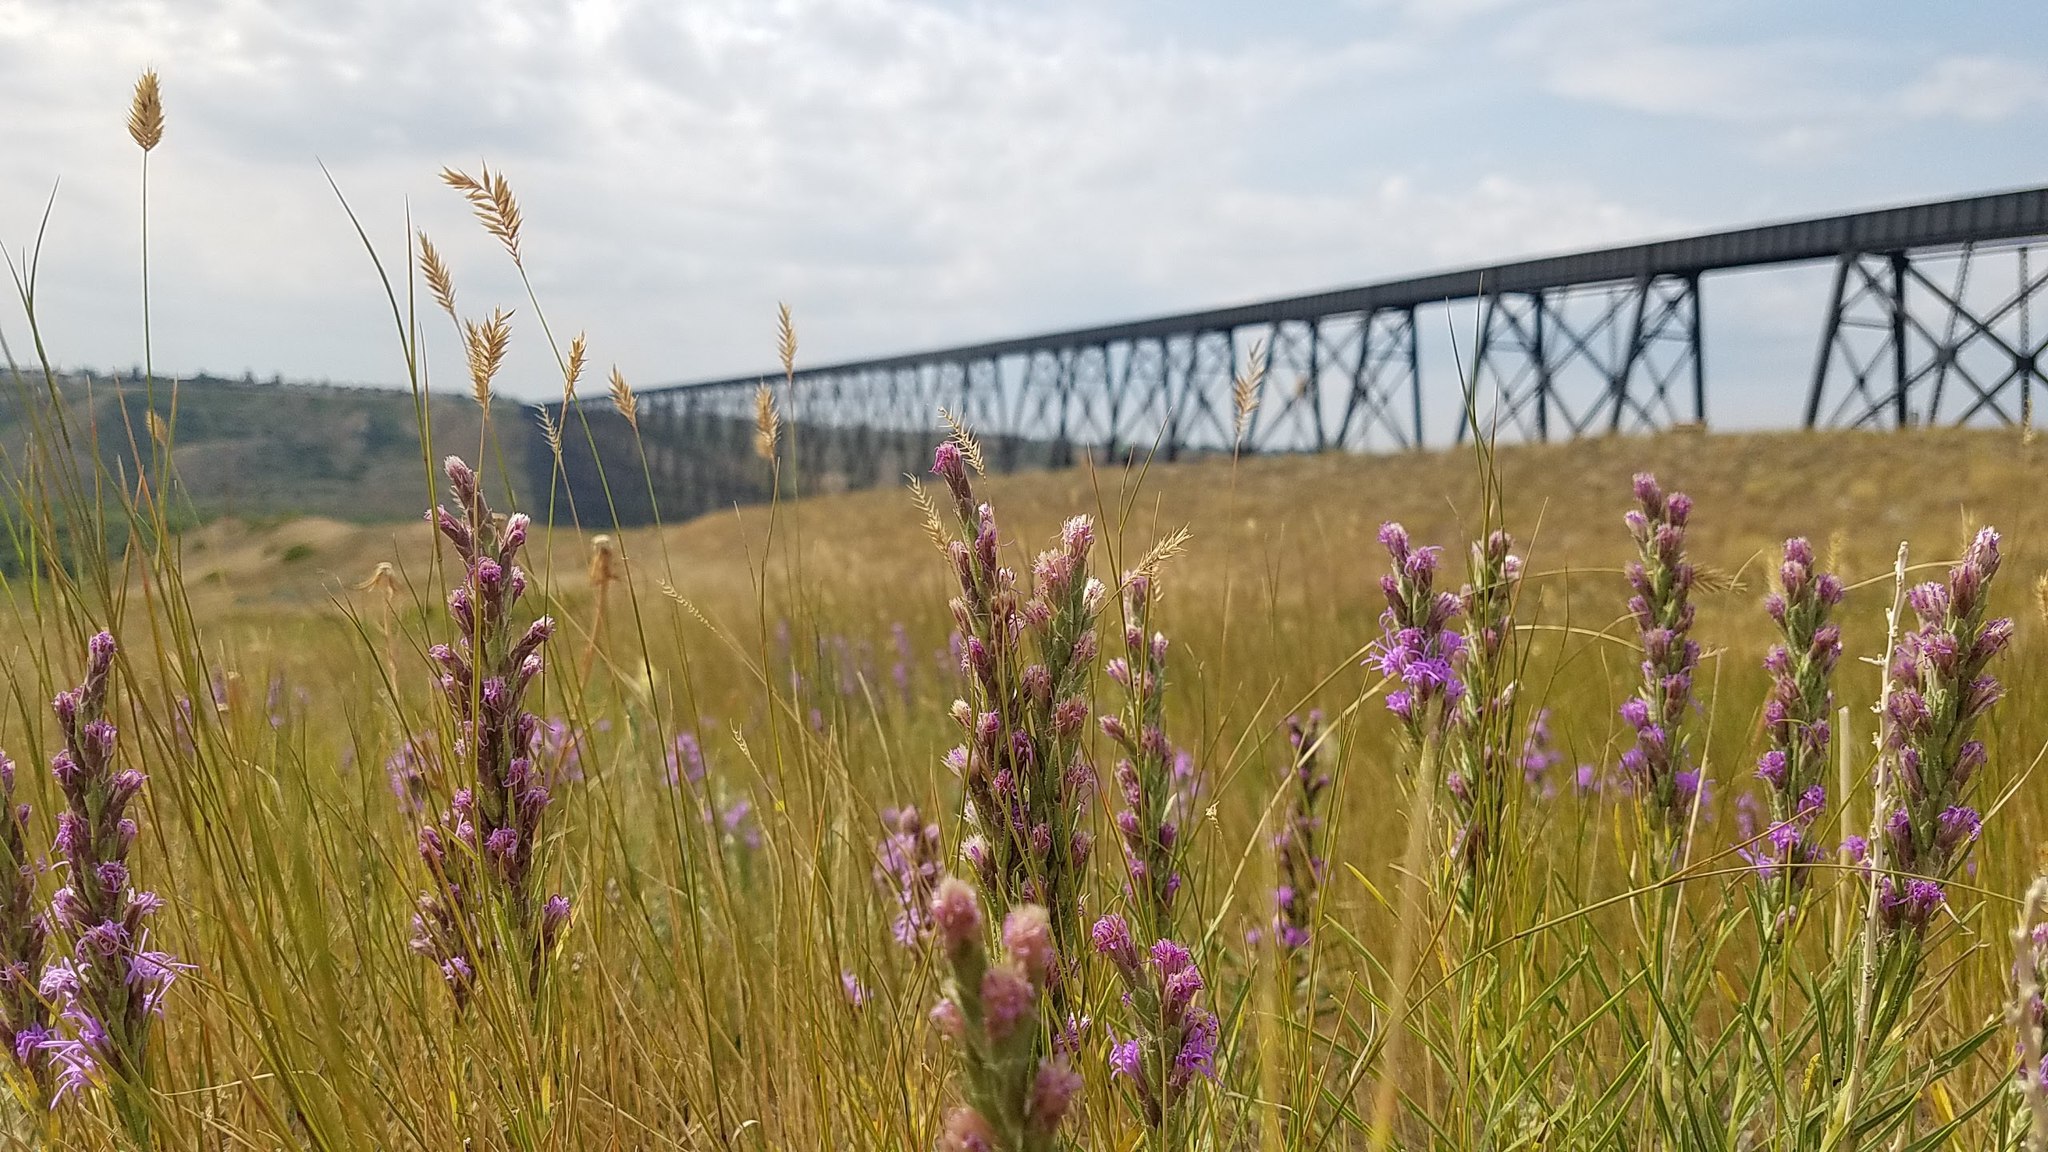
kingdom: Plantae
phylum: Tracheophyta
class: Magnoliopsida
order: Asterales
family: Asteraceae
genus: Liatris
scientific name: Liatris punctata
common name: Dotted gayfeather
